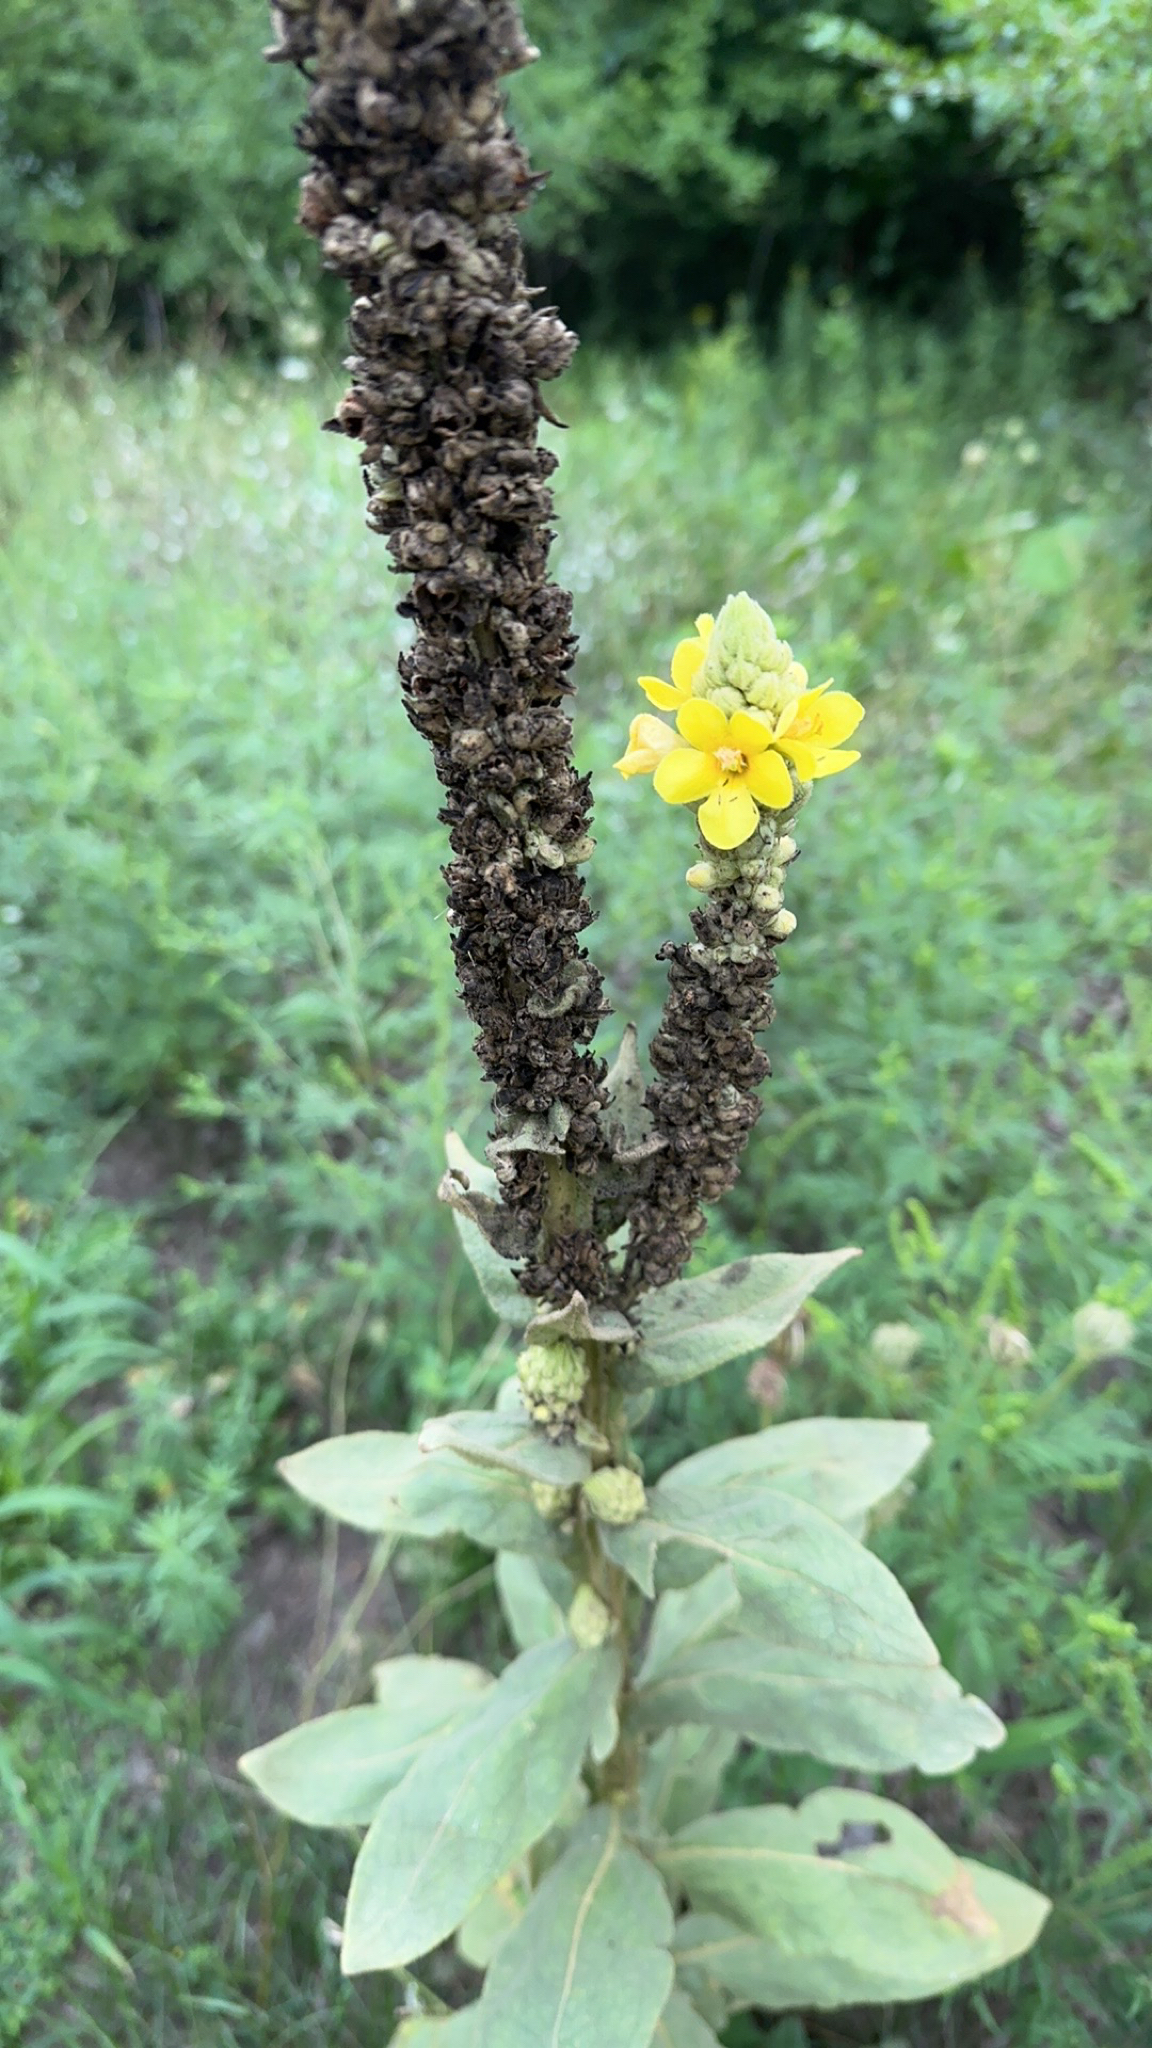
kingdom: Plantae
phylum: Tracheophyta
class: Magnoliopsida
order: Lamiales
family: Scrophulariaceae
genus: Verbascum
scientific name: Verbascum thapsus
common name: Common mullein
